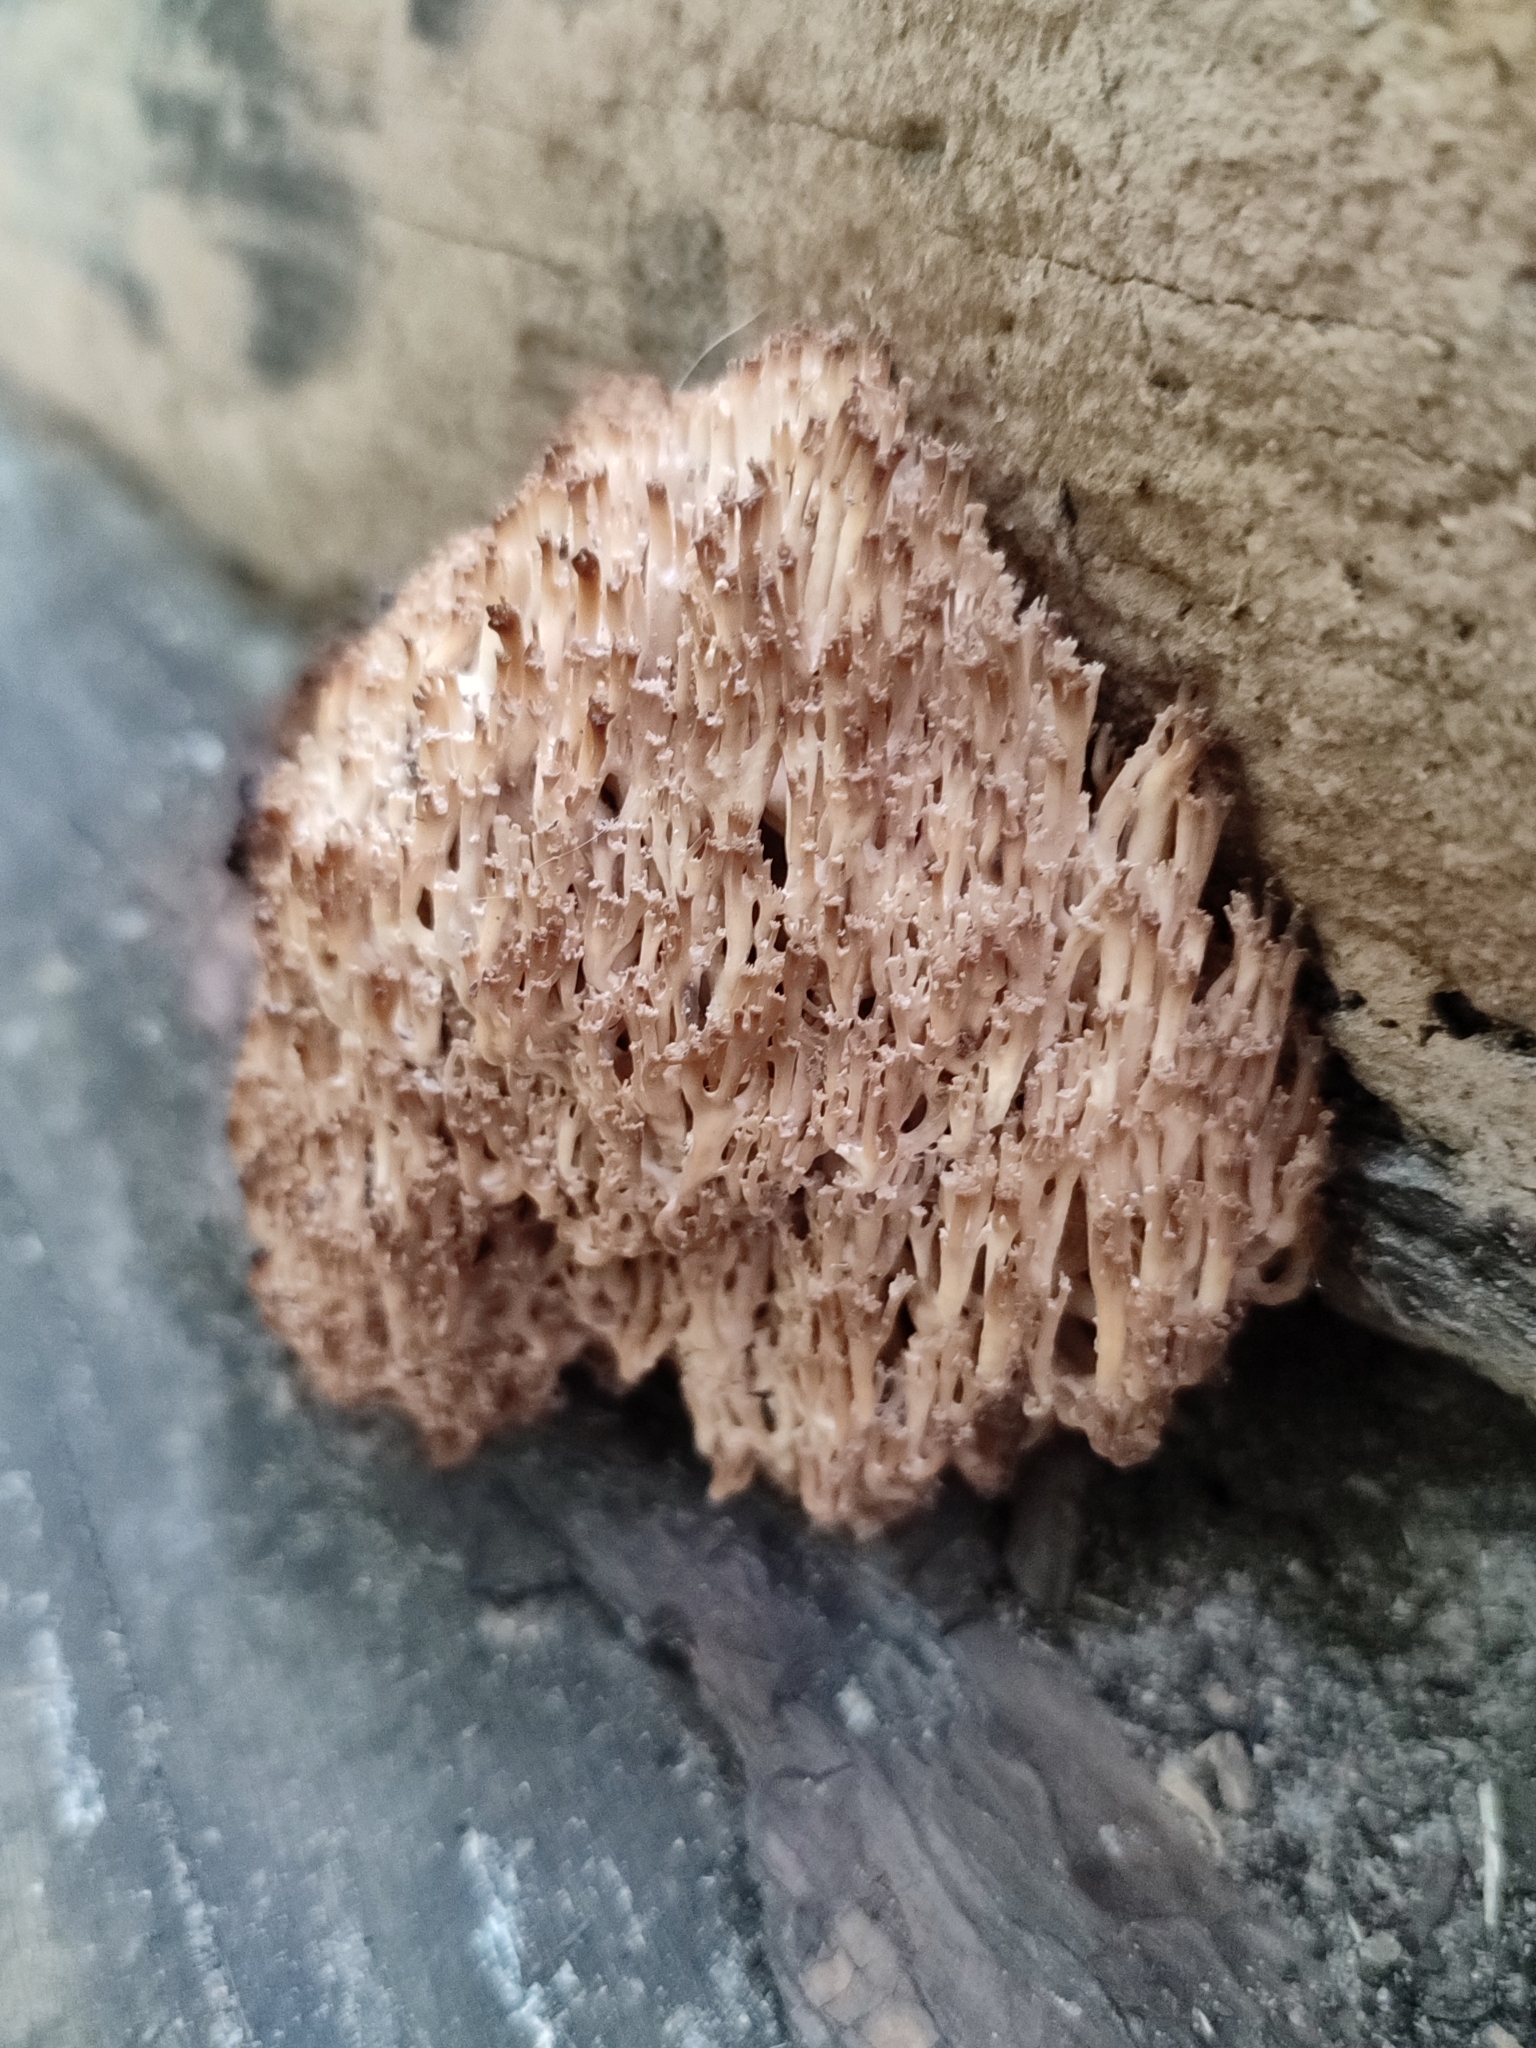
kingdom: Fungi
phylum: Basidiomycota
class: Agaricomycetes
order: Russulales
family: Auriscalpiaceae
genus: Artomyces
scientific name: Artomyces pyxidatus
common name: Crown-tipped coral fungus
